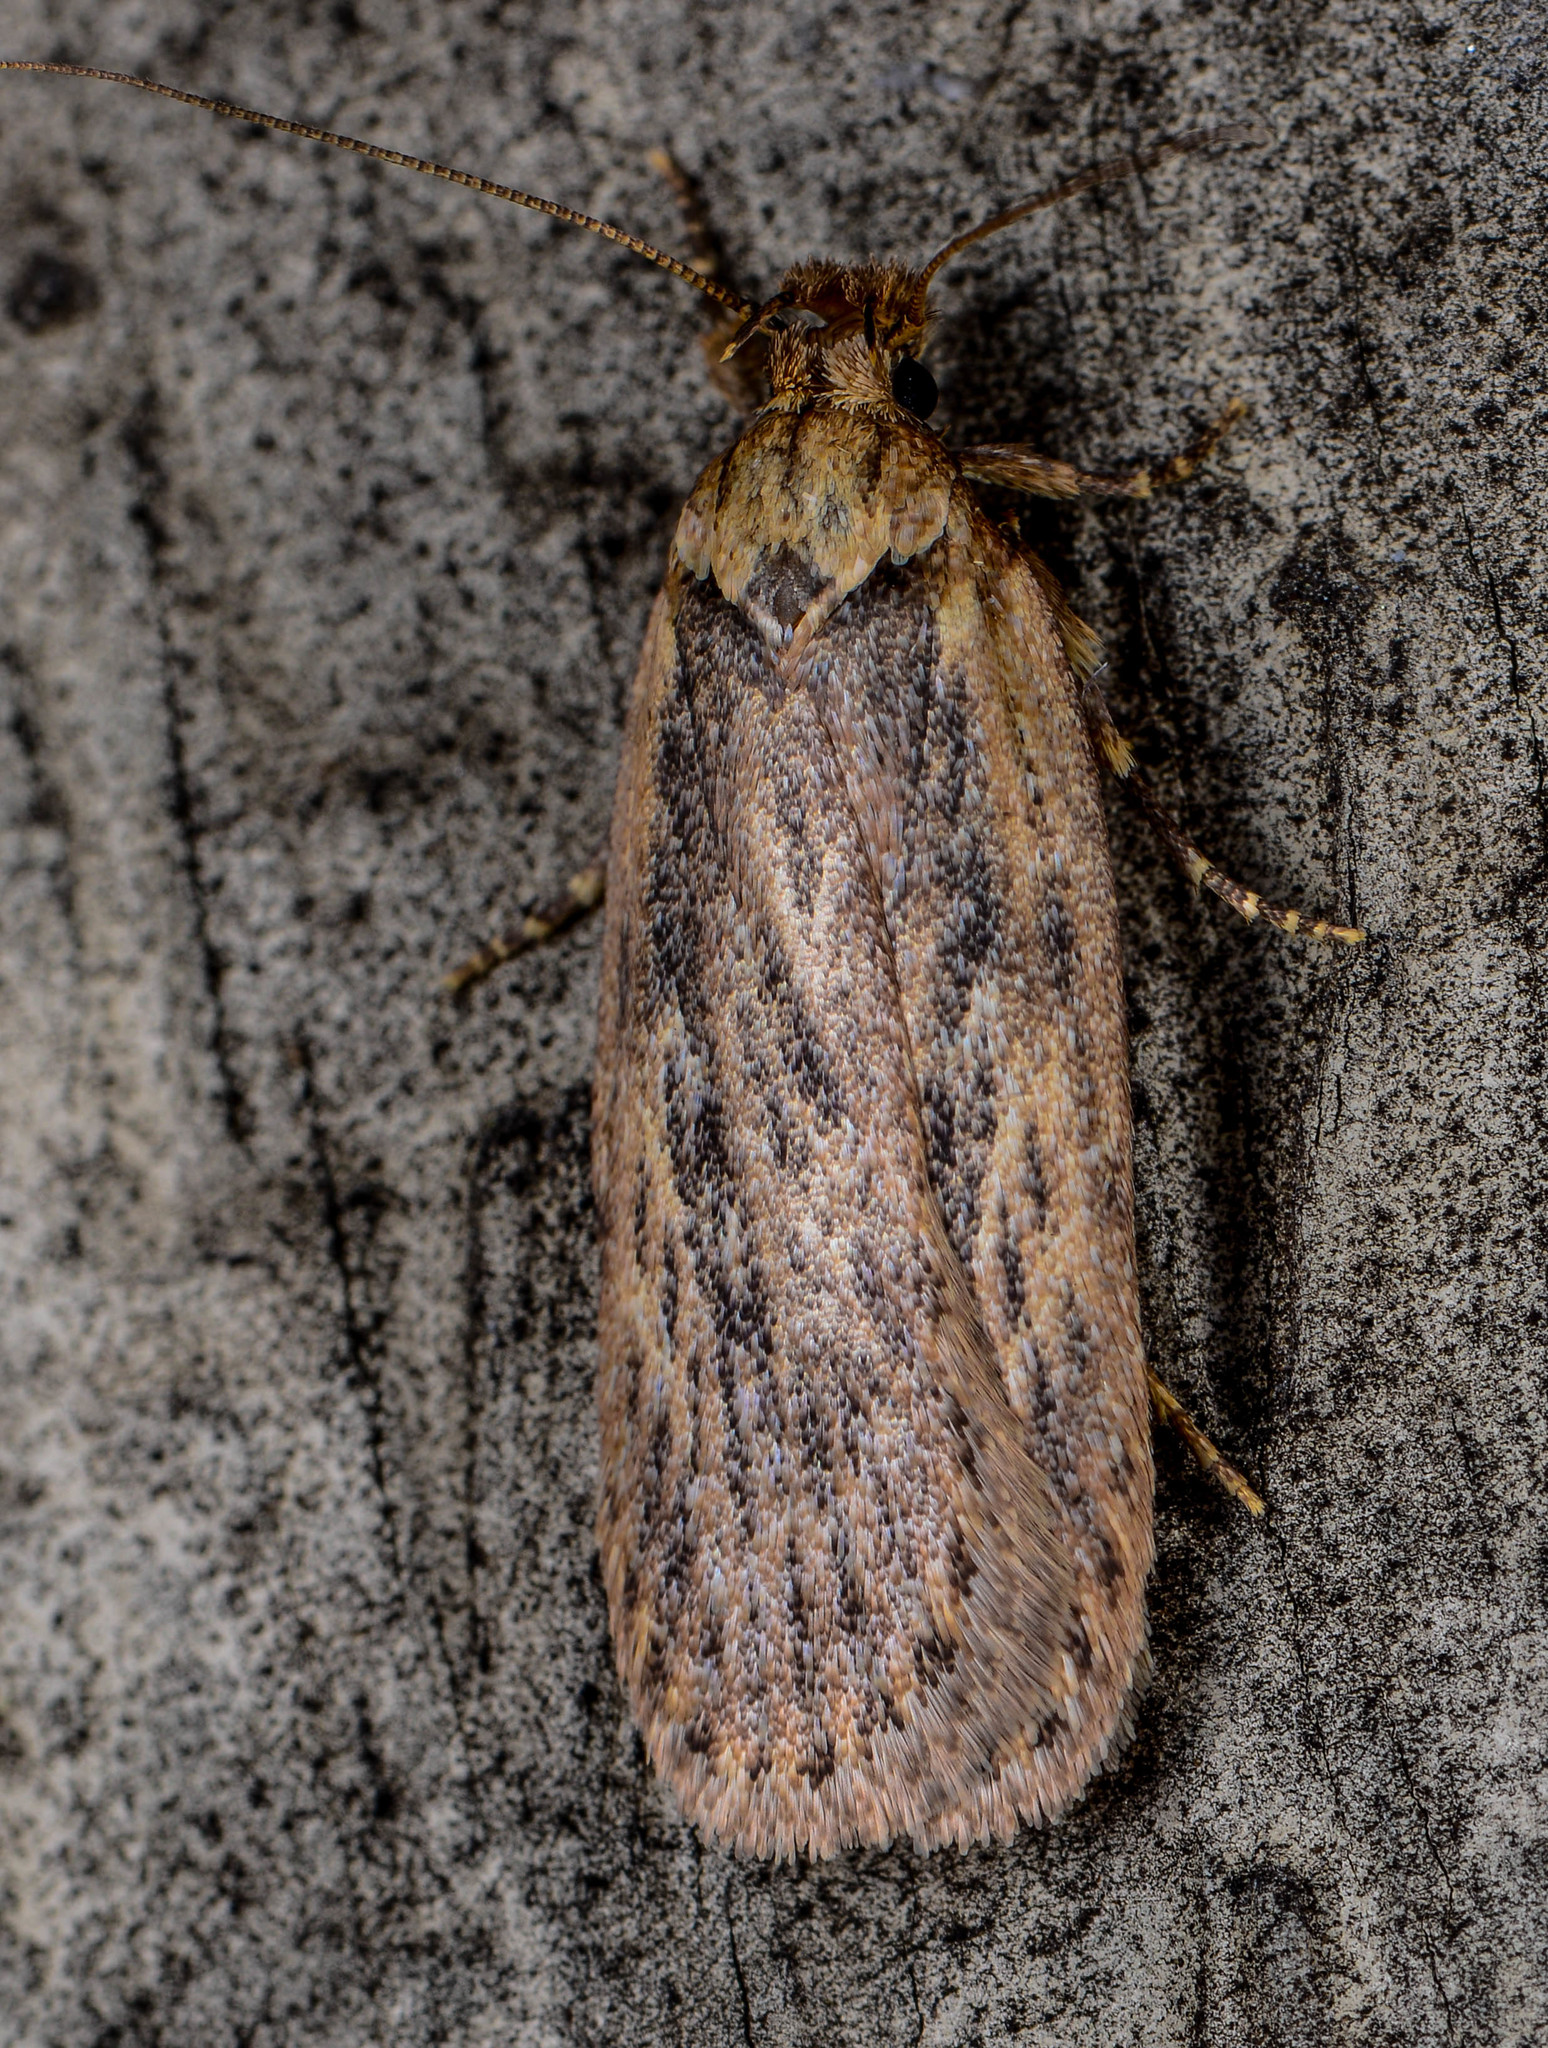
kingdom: Animalia
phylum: Arthropoda
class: Insecta
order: Lepidoptera
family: Depressariidae
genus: Depressaria
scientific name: Depressaria radiella
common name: Parsnip moth
